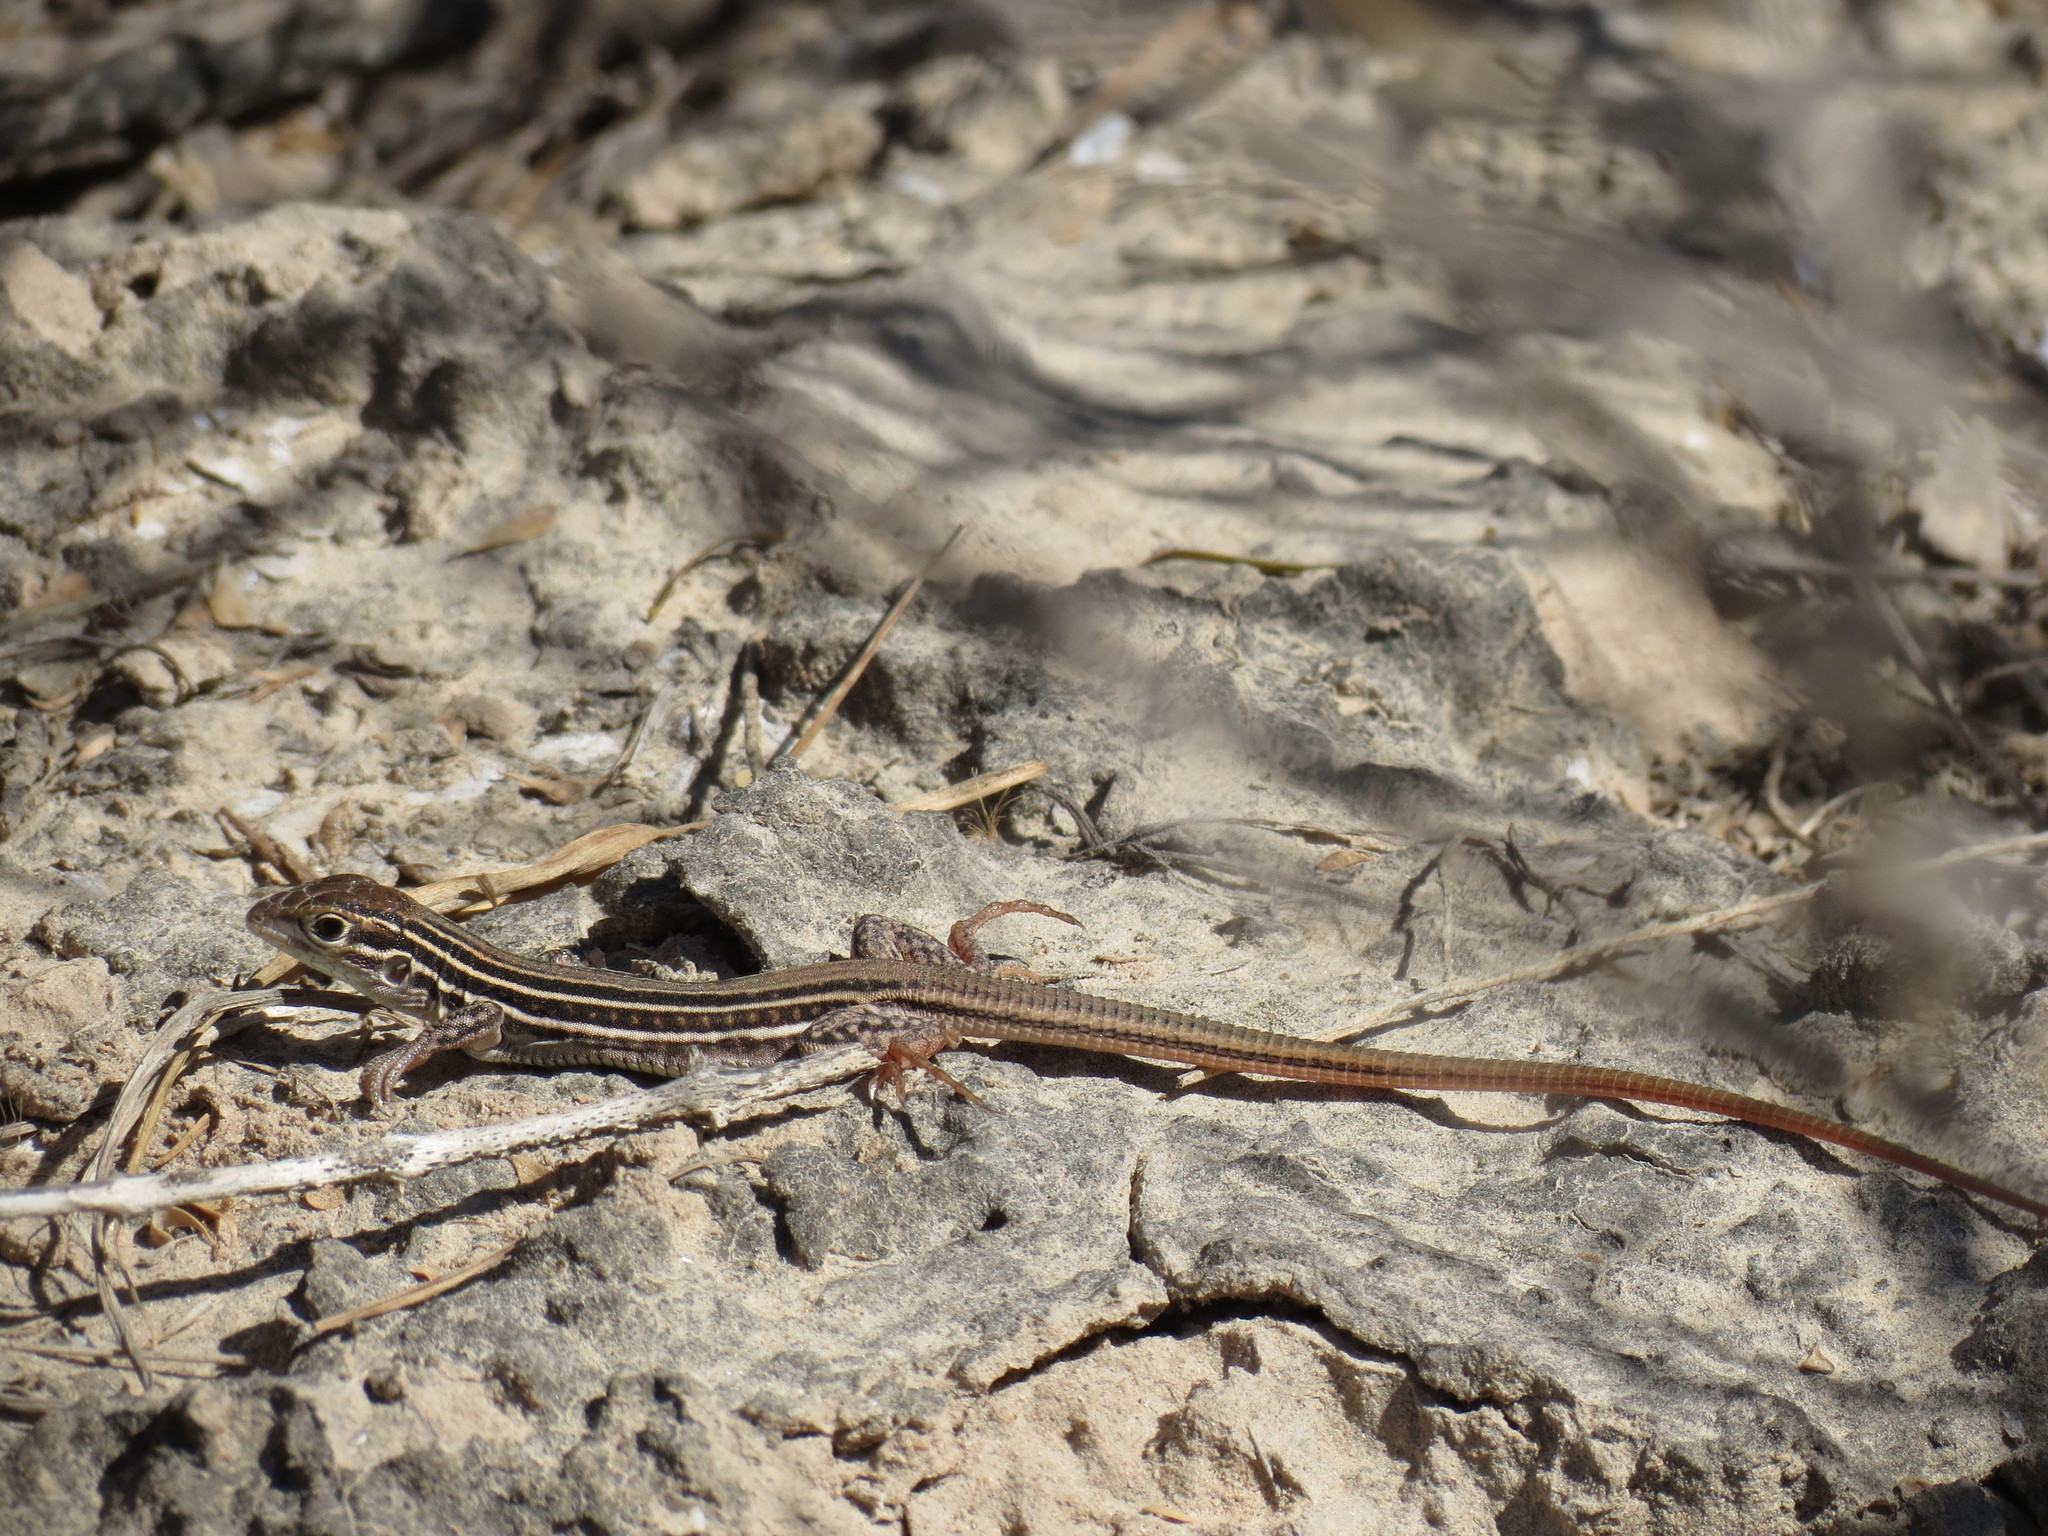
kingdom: Animalia
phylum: Chordata
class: Squamata
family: Teiidae
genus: Aspidoscelis
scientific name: Aspidoscelis gularis
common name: Eastern spotted whiptail
